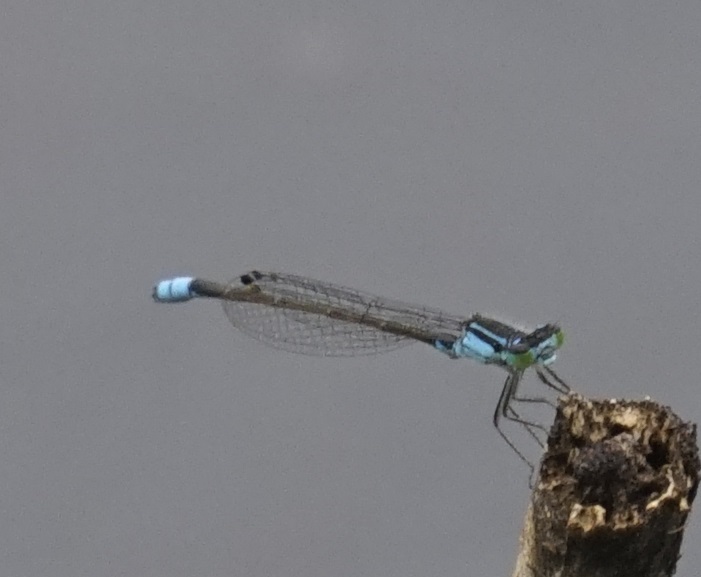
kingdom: Animalia
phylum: Arthropoda
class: Insecta
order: Odonata
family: Coenagrionidae
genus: Ischnura
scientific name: Ischnura heterosticta
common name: Common bluetail
